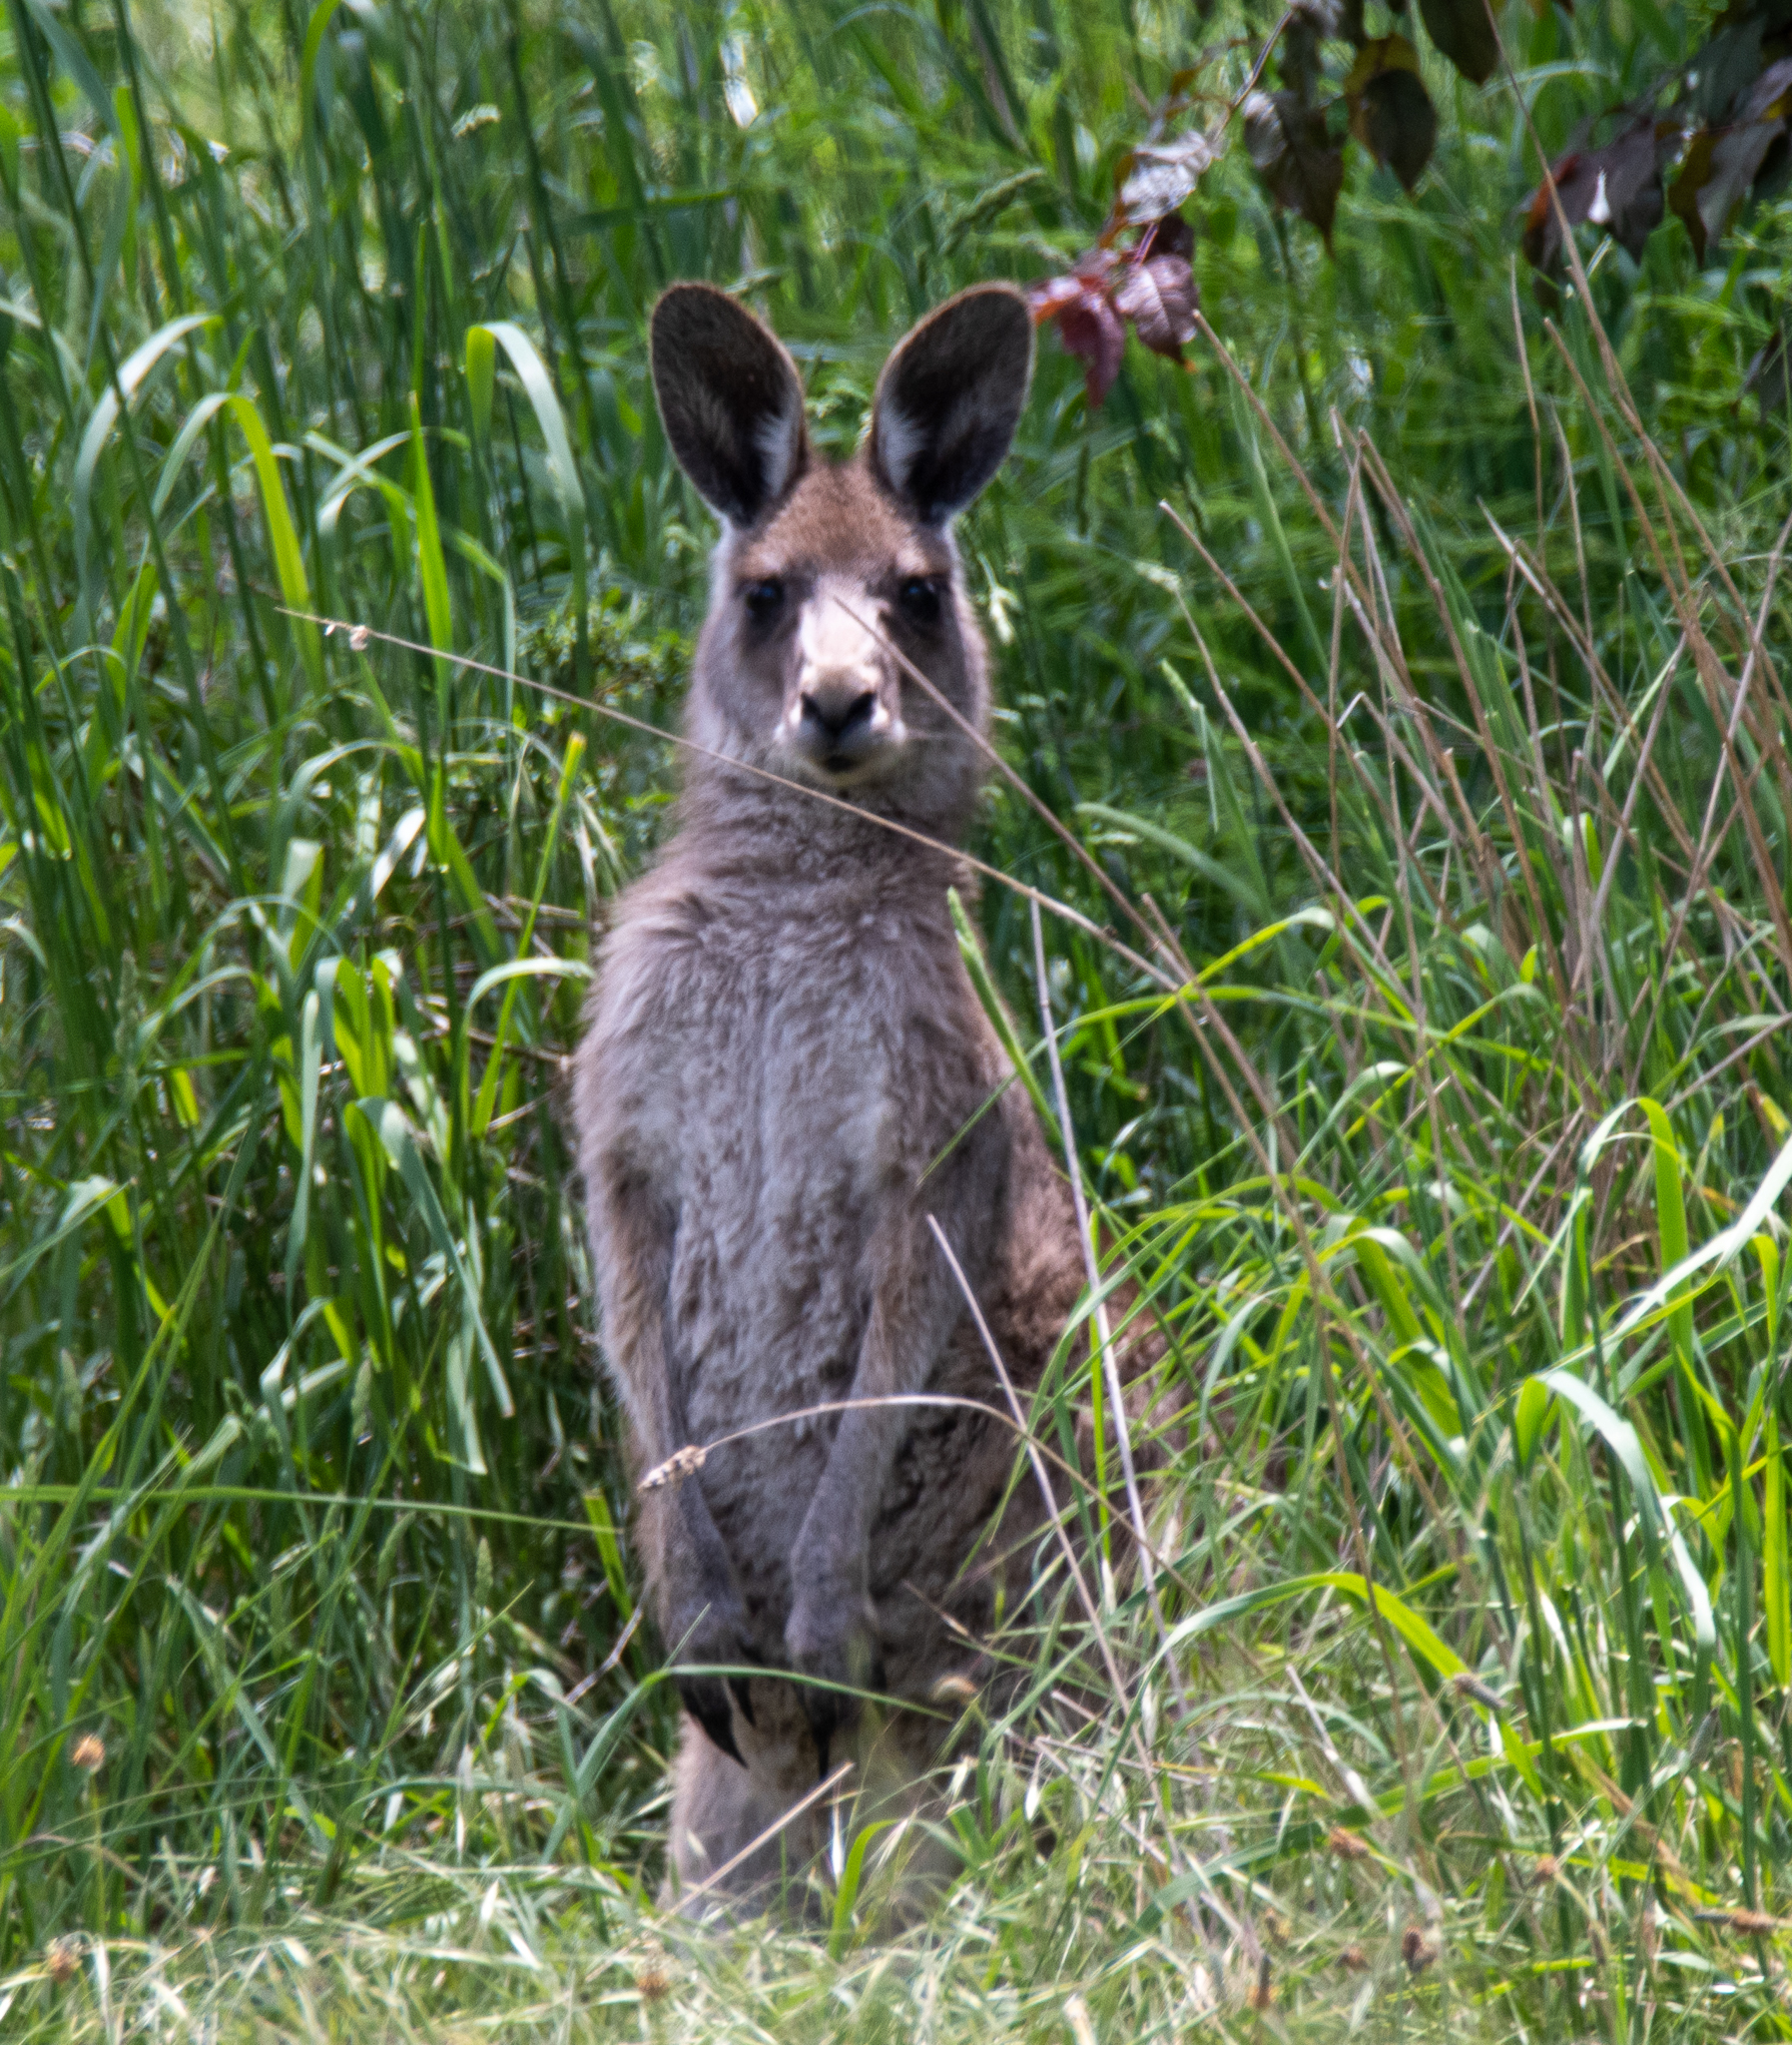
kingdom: Animalia
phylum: Chordata
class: Mammalia
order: Diprotodontia
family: Macropodidae
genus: Macropus
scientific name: Macropus giganteus
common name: Eastern grey kangaroo
